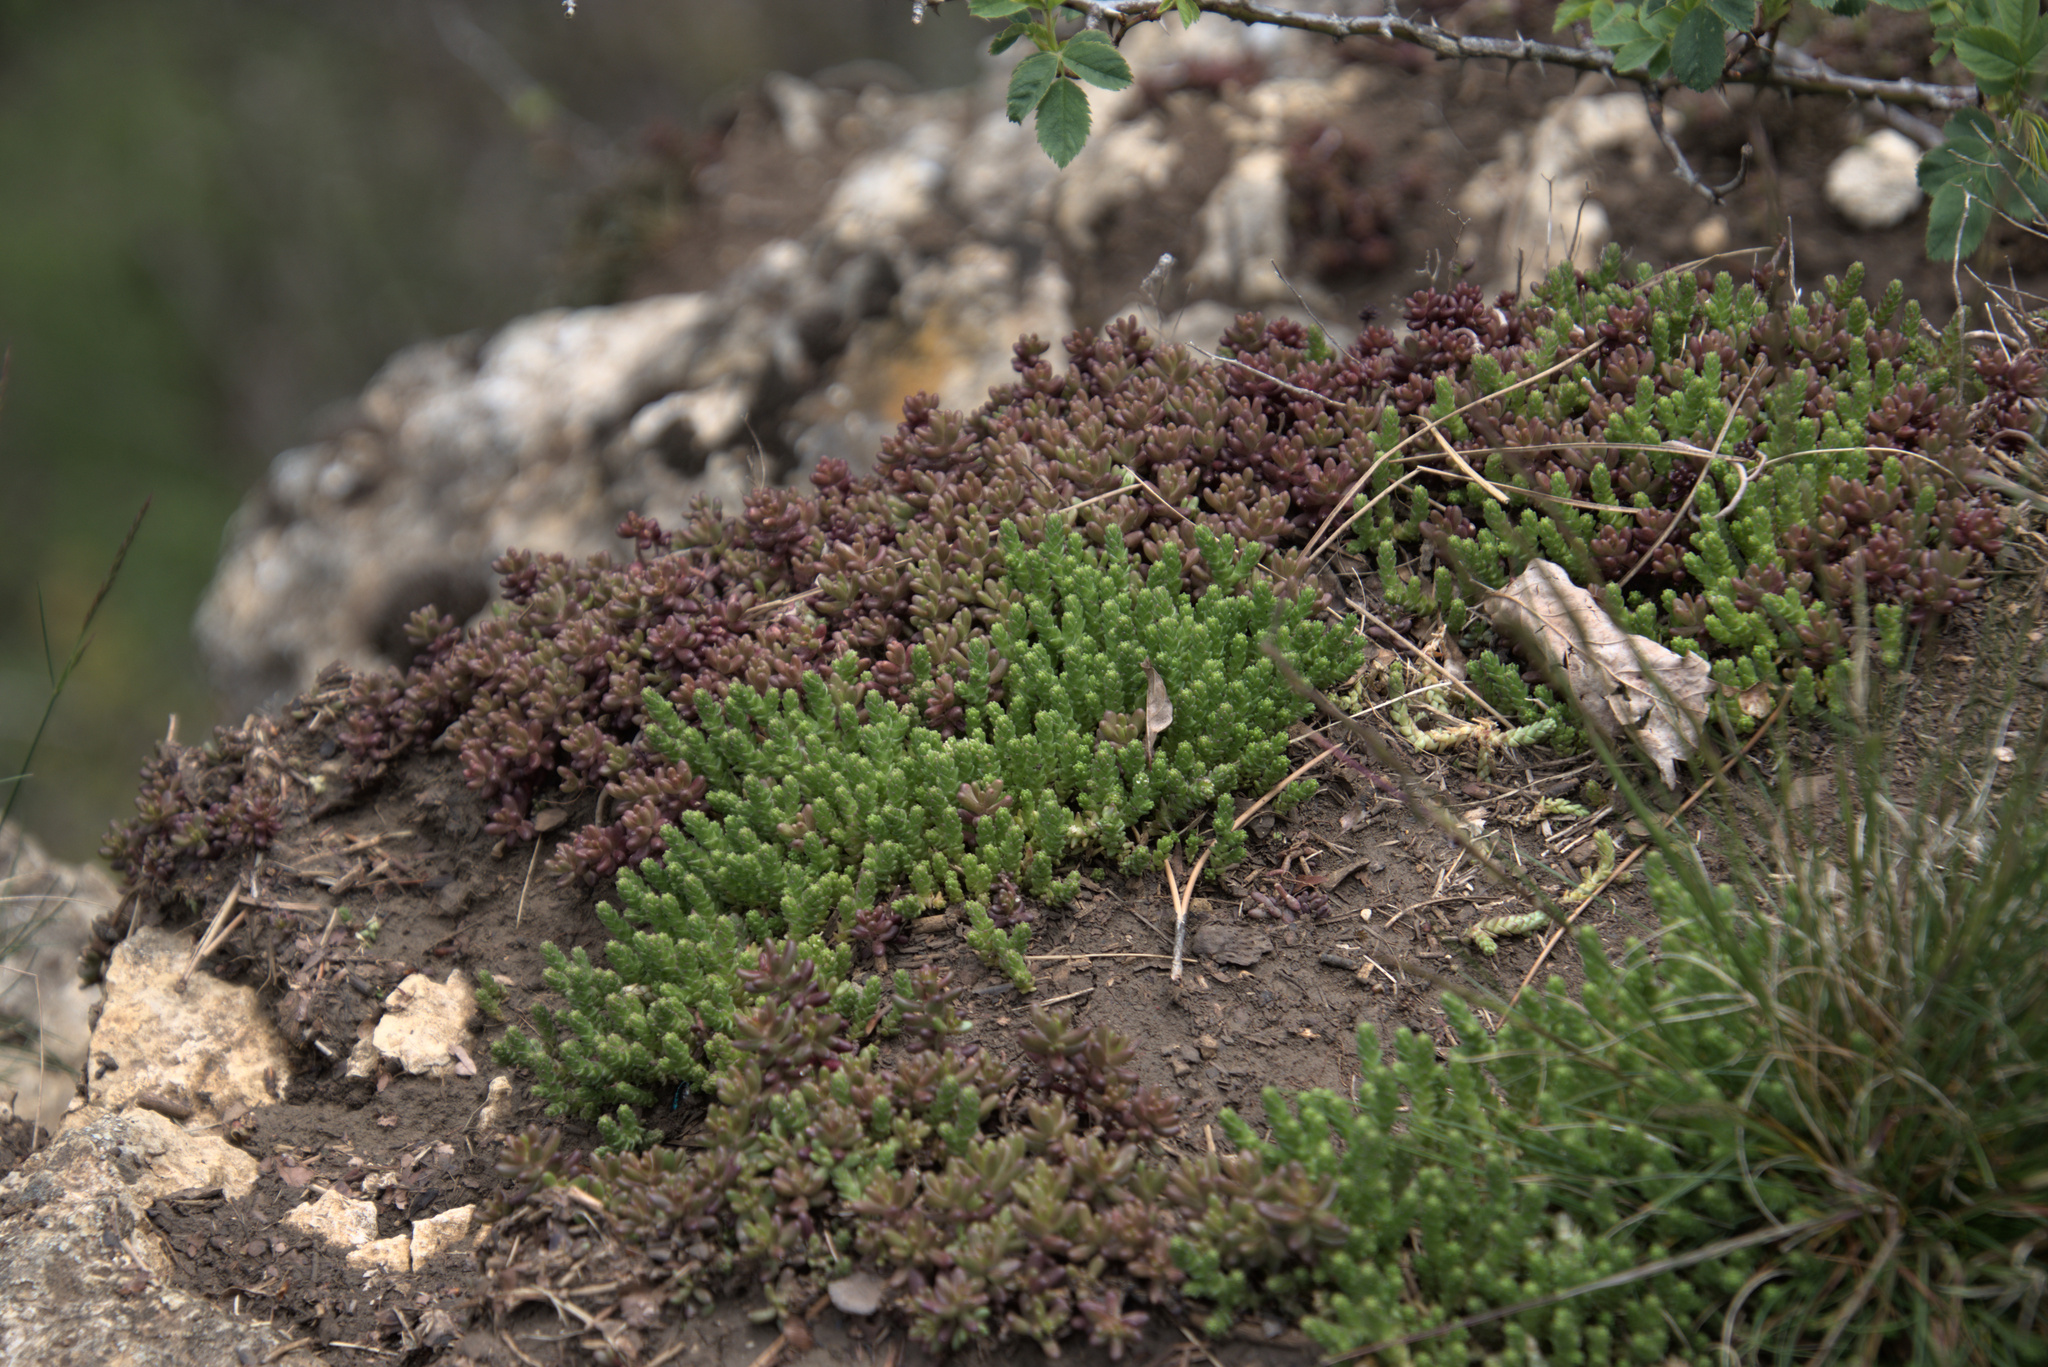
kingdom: Plantae
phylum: Tracheophyta
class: Magnoliopsida
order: Saxifragales
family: Crassulaceae
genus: Sedum
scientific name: Sedum acre
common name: Biting stonecrop
